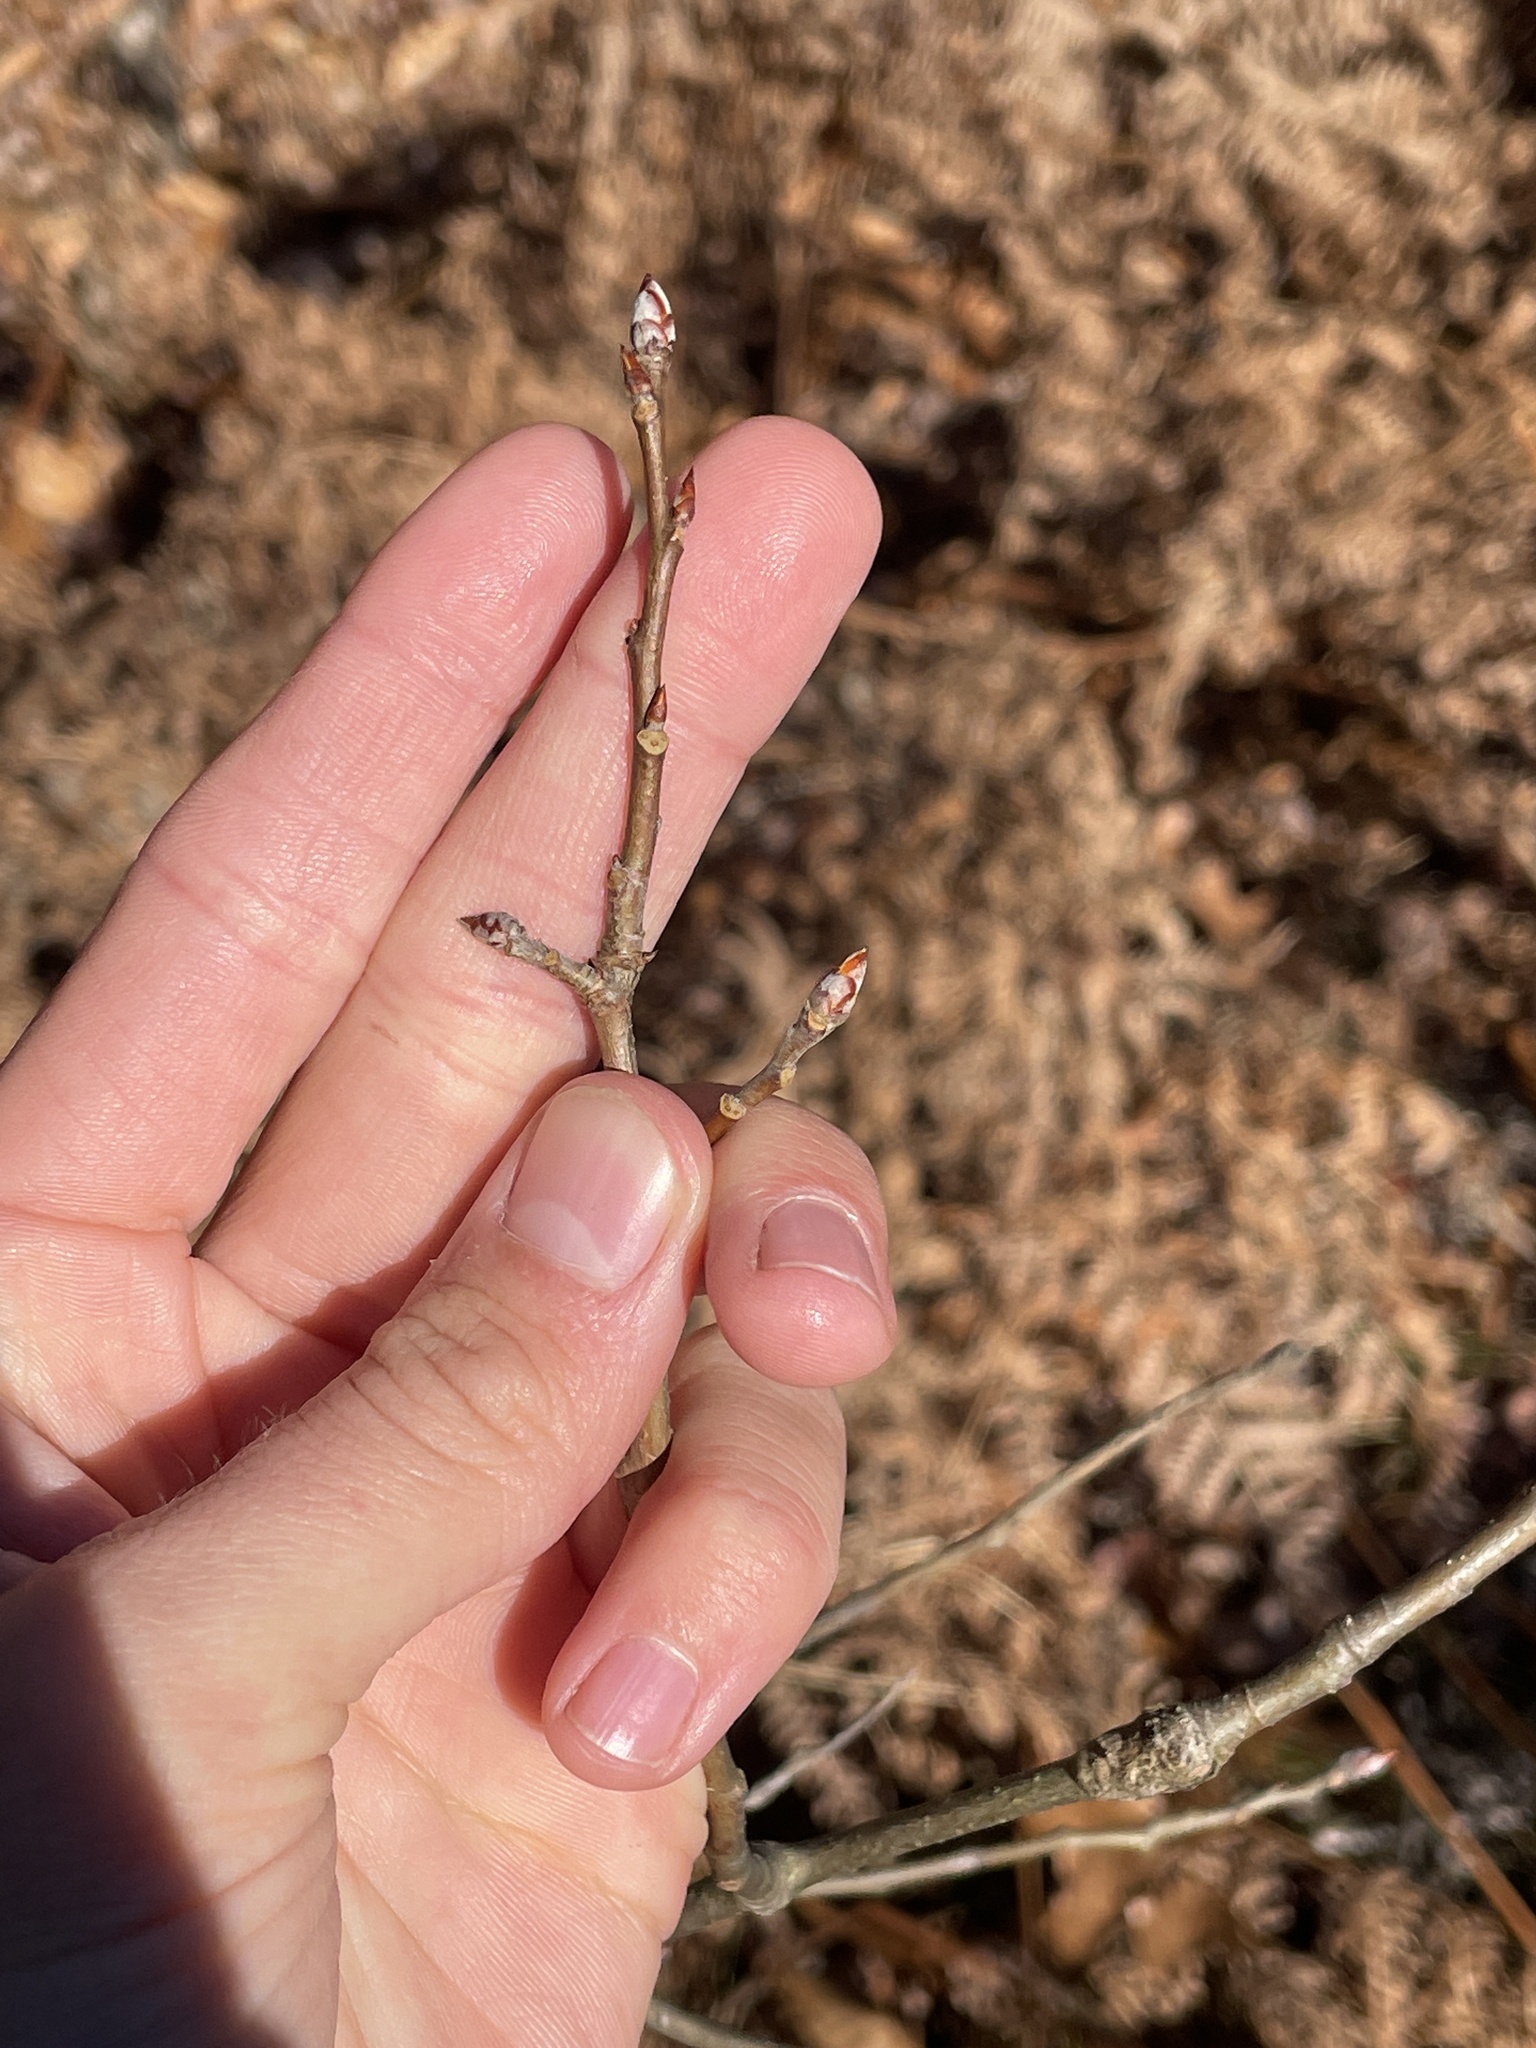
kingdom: Plantae
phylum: Tracheophyta
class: Magnoliopsida
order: Malpighiales
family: Salicaceae
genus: Populus
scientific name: Populus grandidentata
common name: Bigtooth aspen
